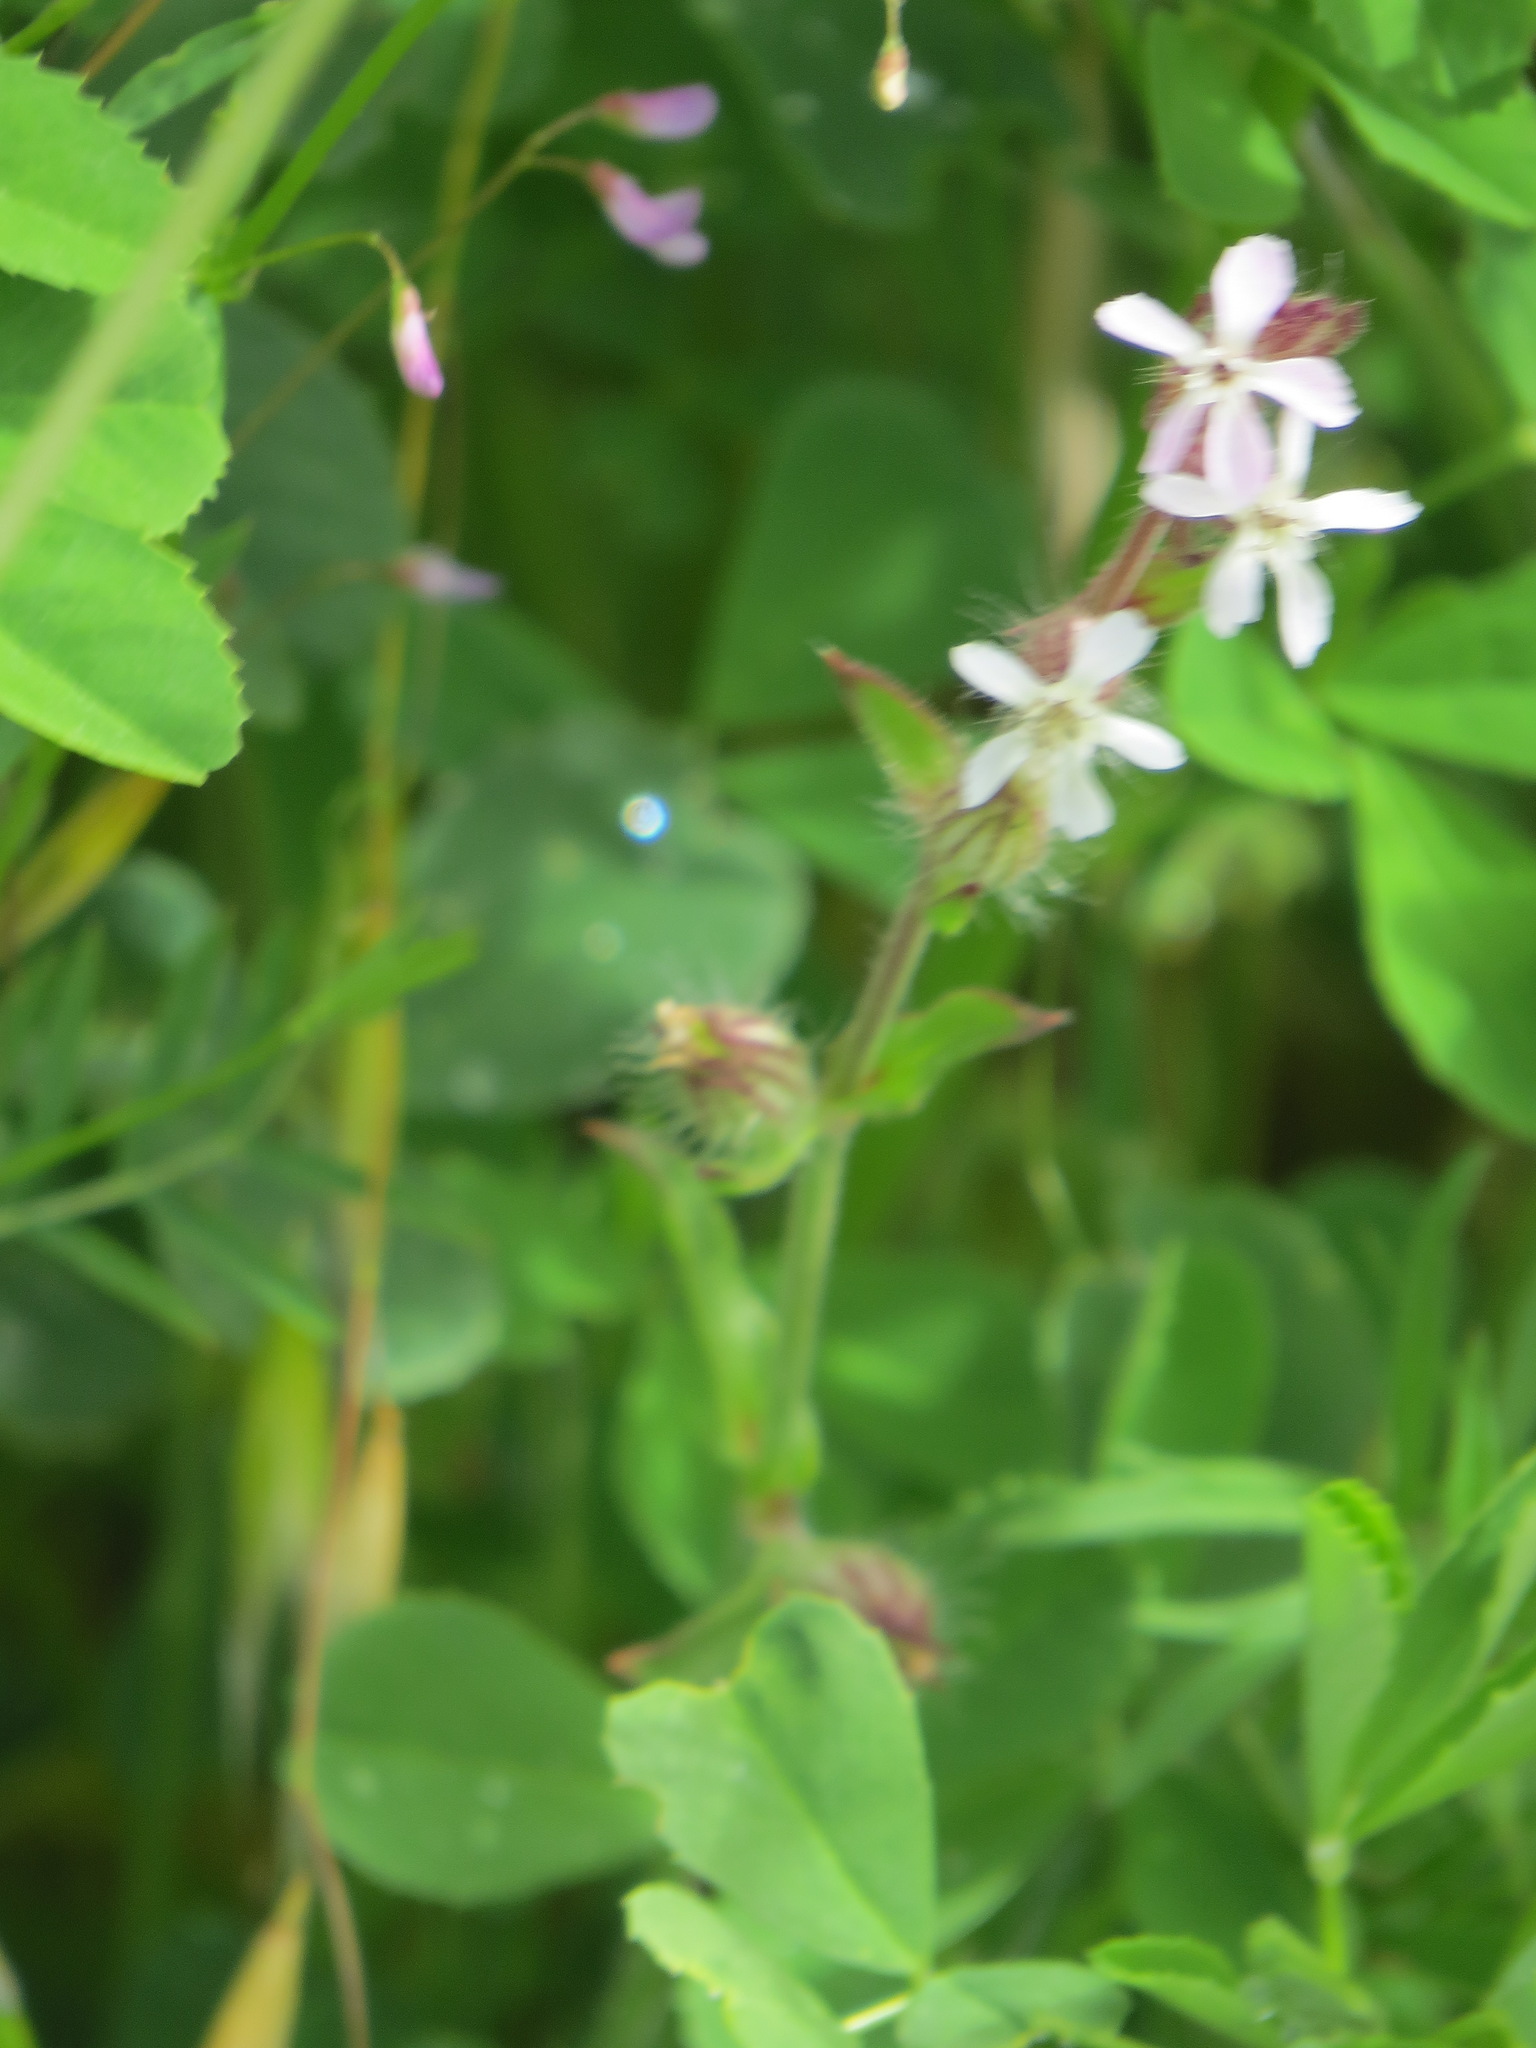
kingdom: Plantae
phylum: Tracheophyta
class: Magnoliopsida
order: Caryophyllales
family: Caryophyllaceae
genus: Silene
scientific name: Silene gallica
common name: Small-flowered catchfly
